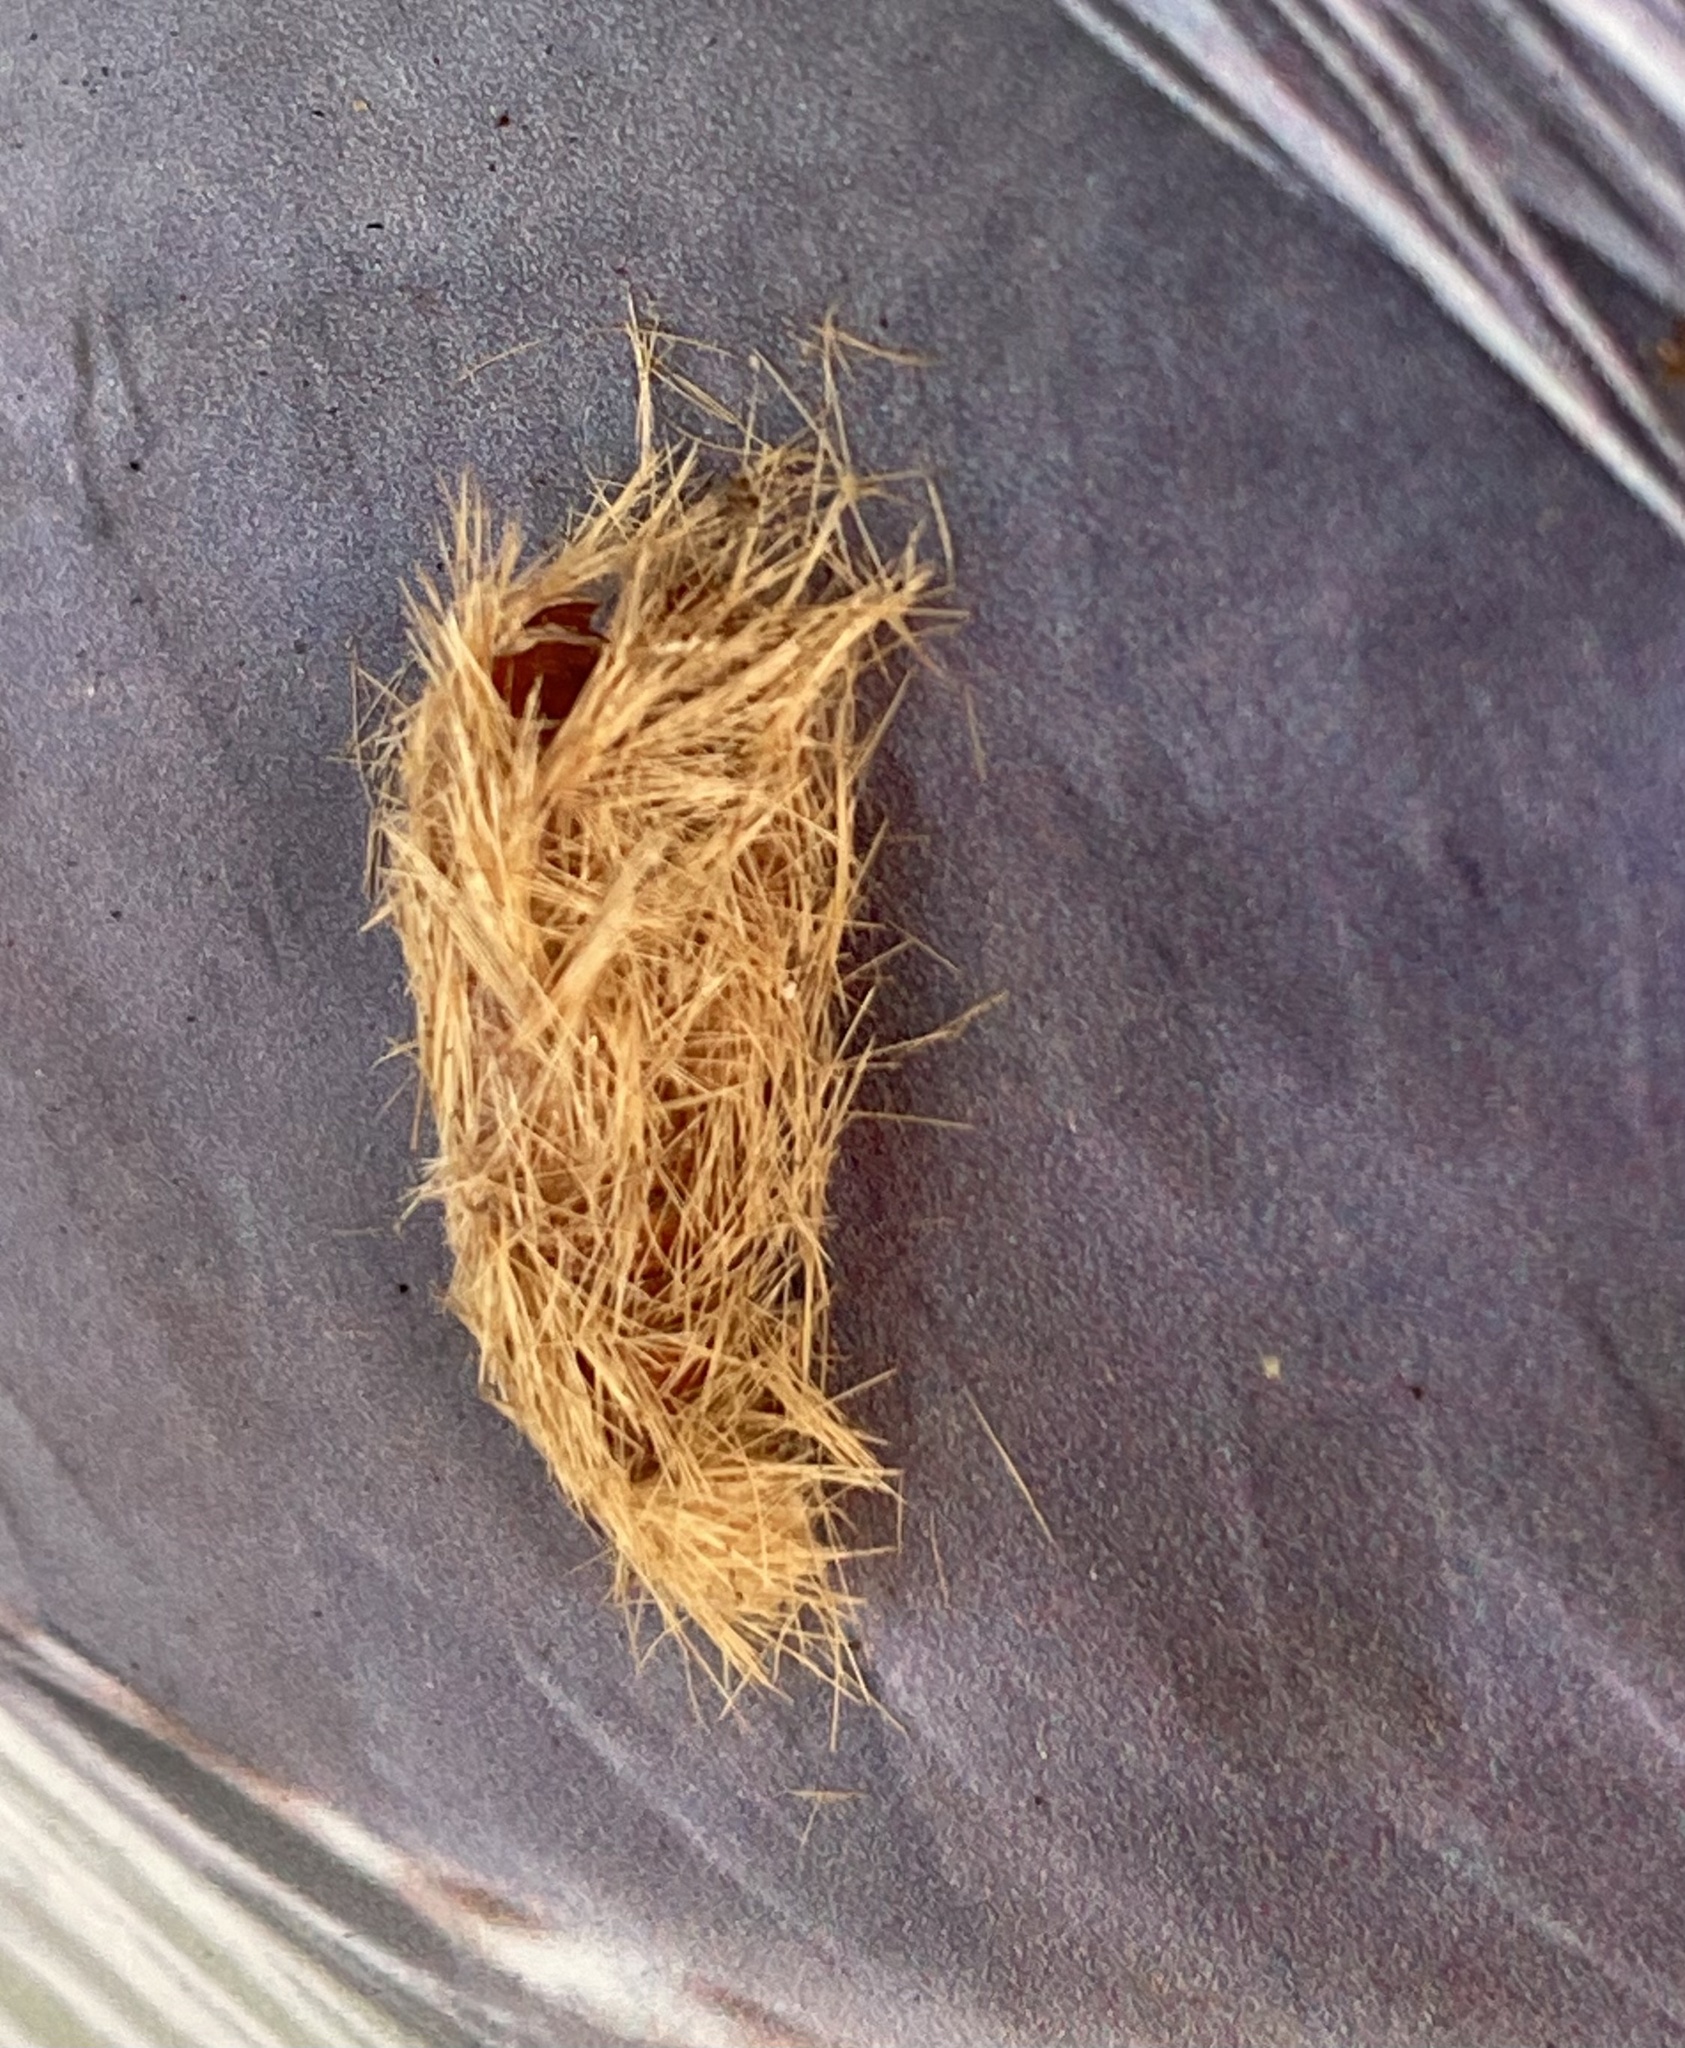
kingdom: Animalia
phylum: Arthropoda
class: Insecta
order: Lepidoptera
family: Erebidae
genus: Lymire
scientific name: Lymire edwardsii
